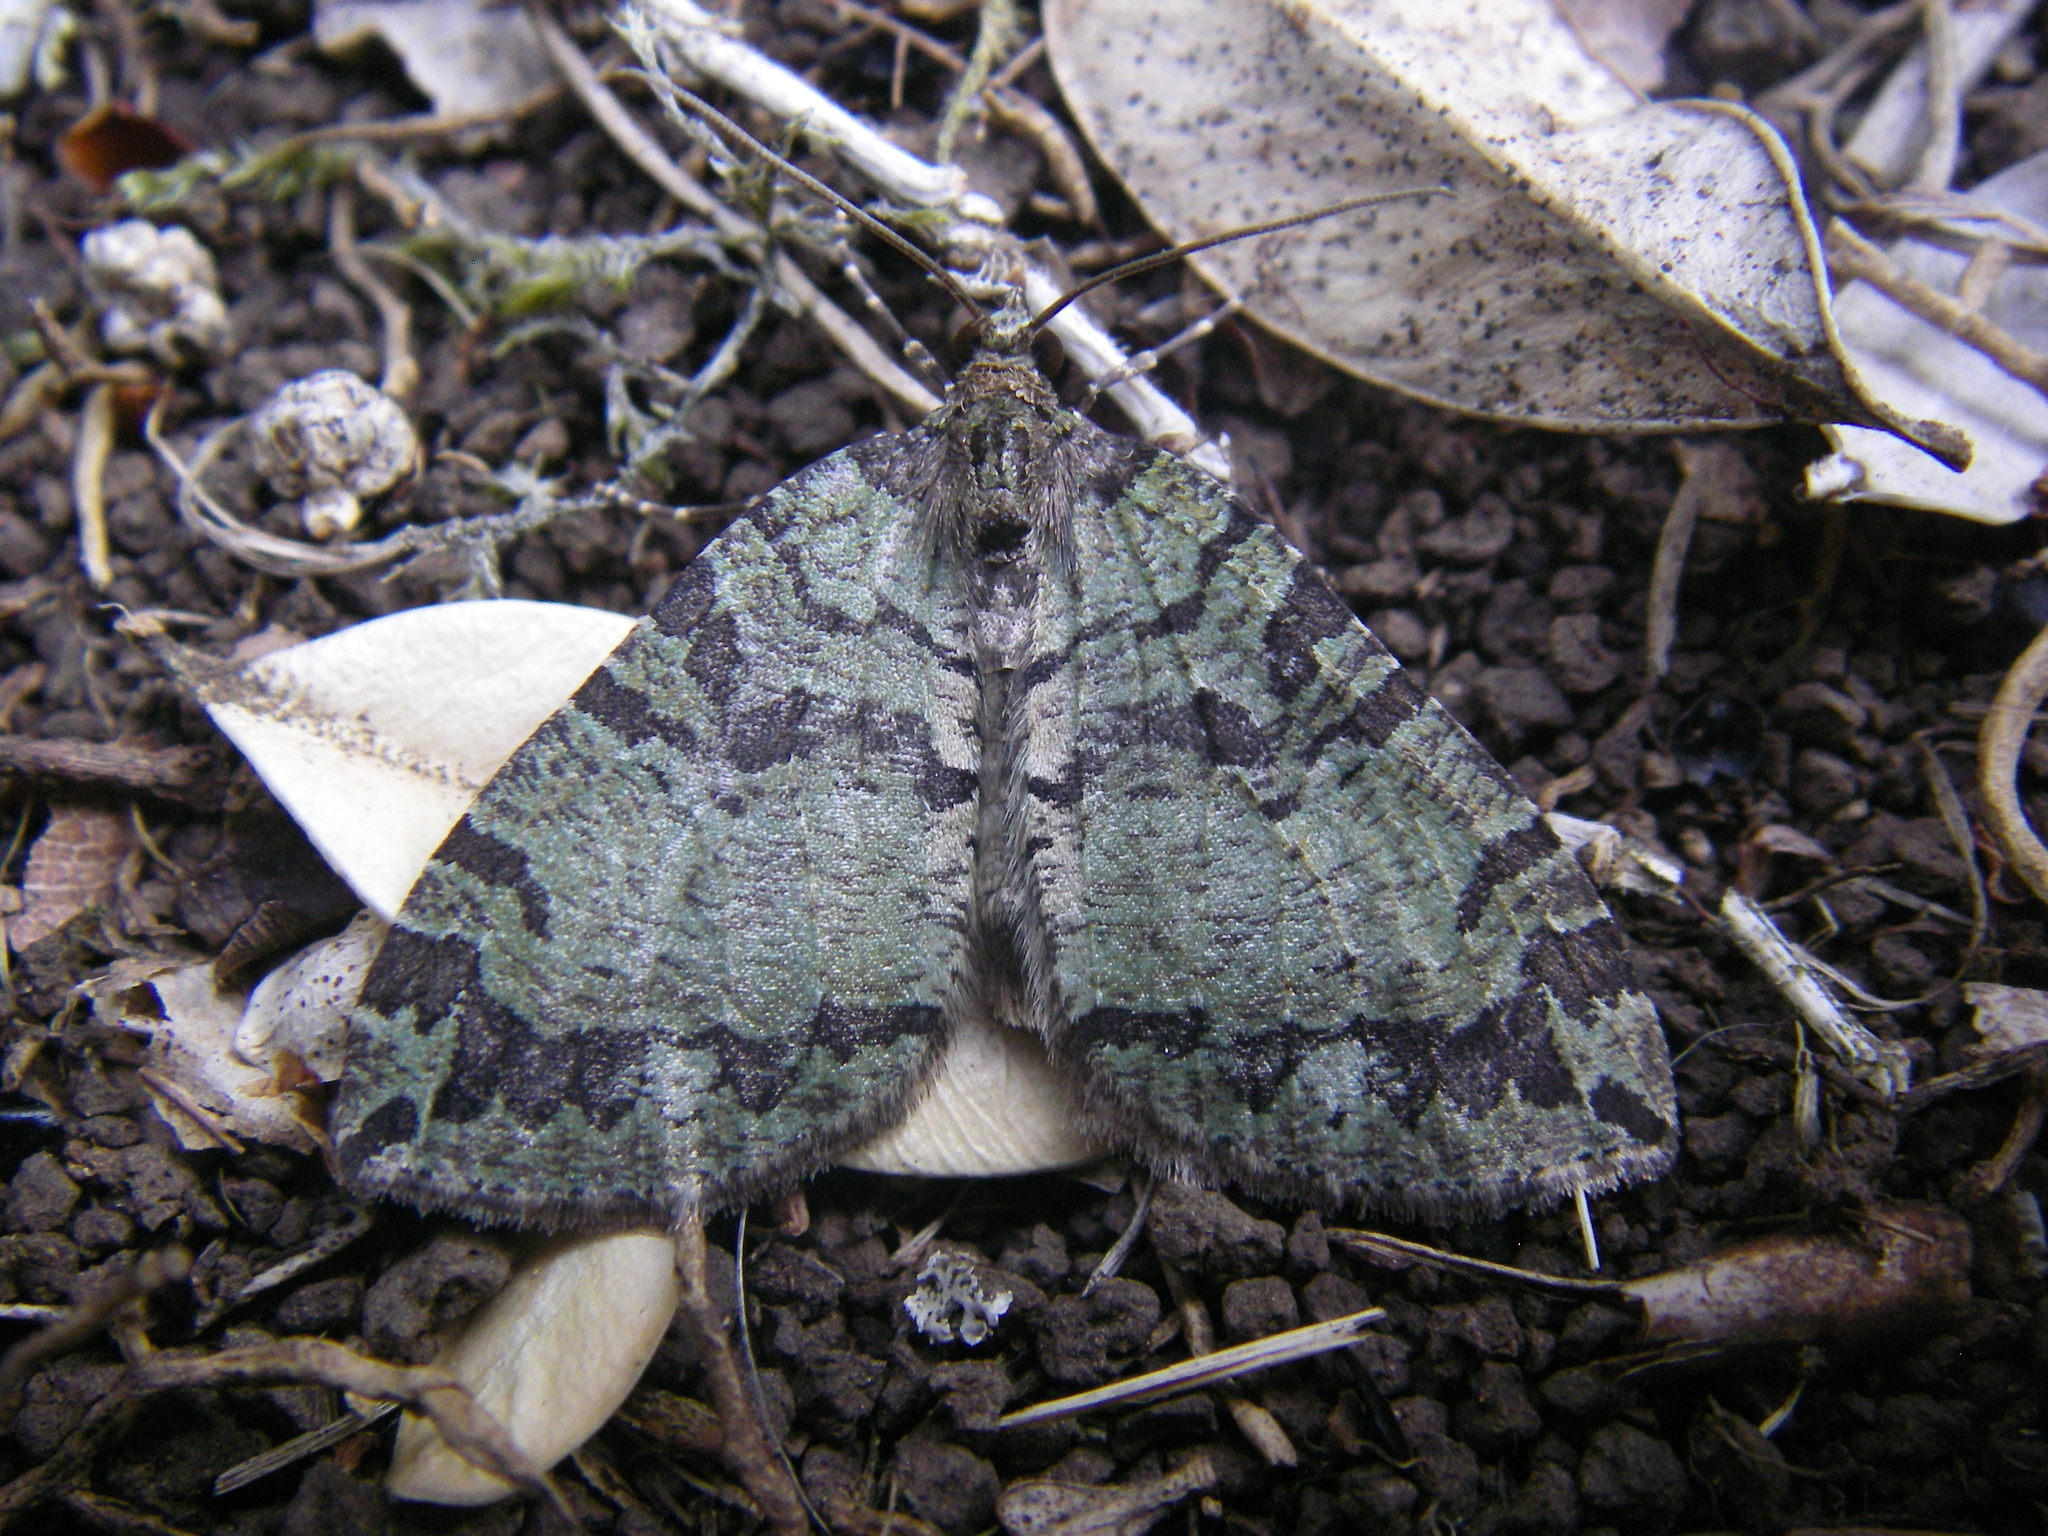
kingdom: Animalia
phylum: Arthropoda
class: Insecta
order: Lepidoptera
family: Geometridae
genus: Hydriomena
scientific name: Hydriomena furcata
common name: July highflyer
